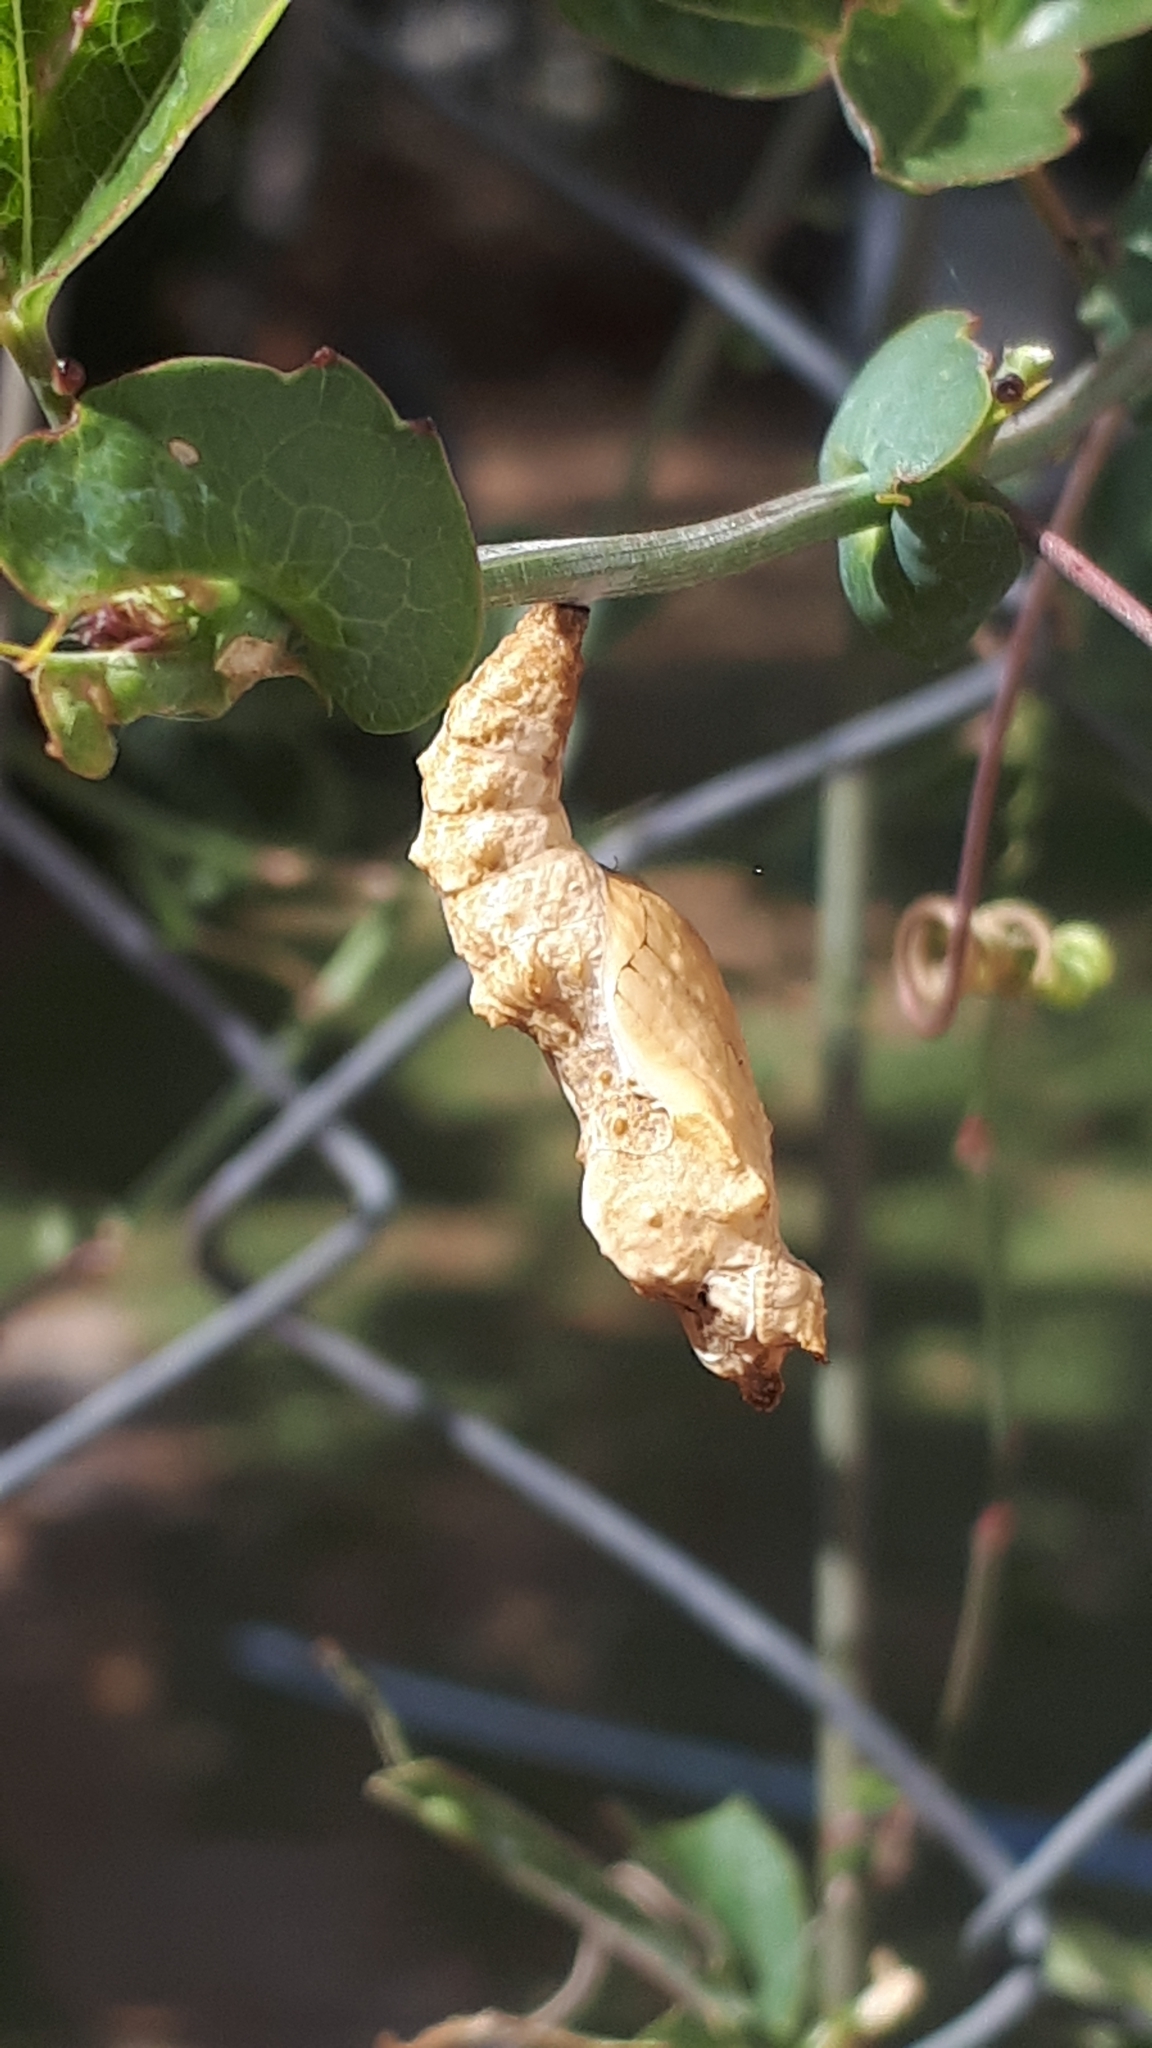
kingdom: Animalia
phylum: Arthropoda
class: Insecta
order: Lepidoptera
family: Nymphalidae
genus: Dione
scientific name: Dione vanillae
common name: Gulf fritillary
